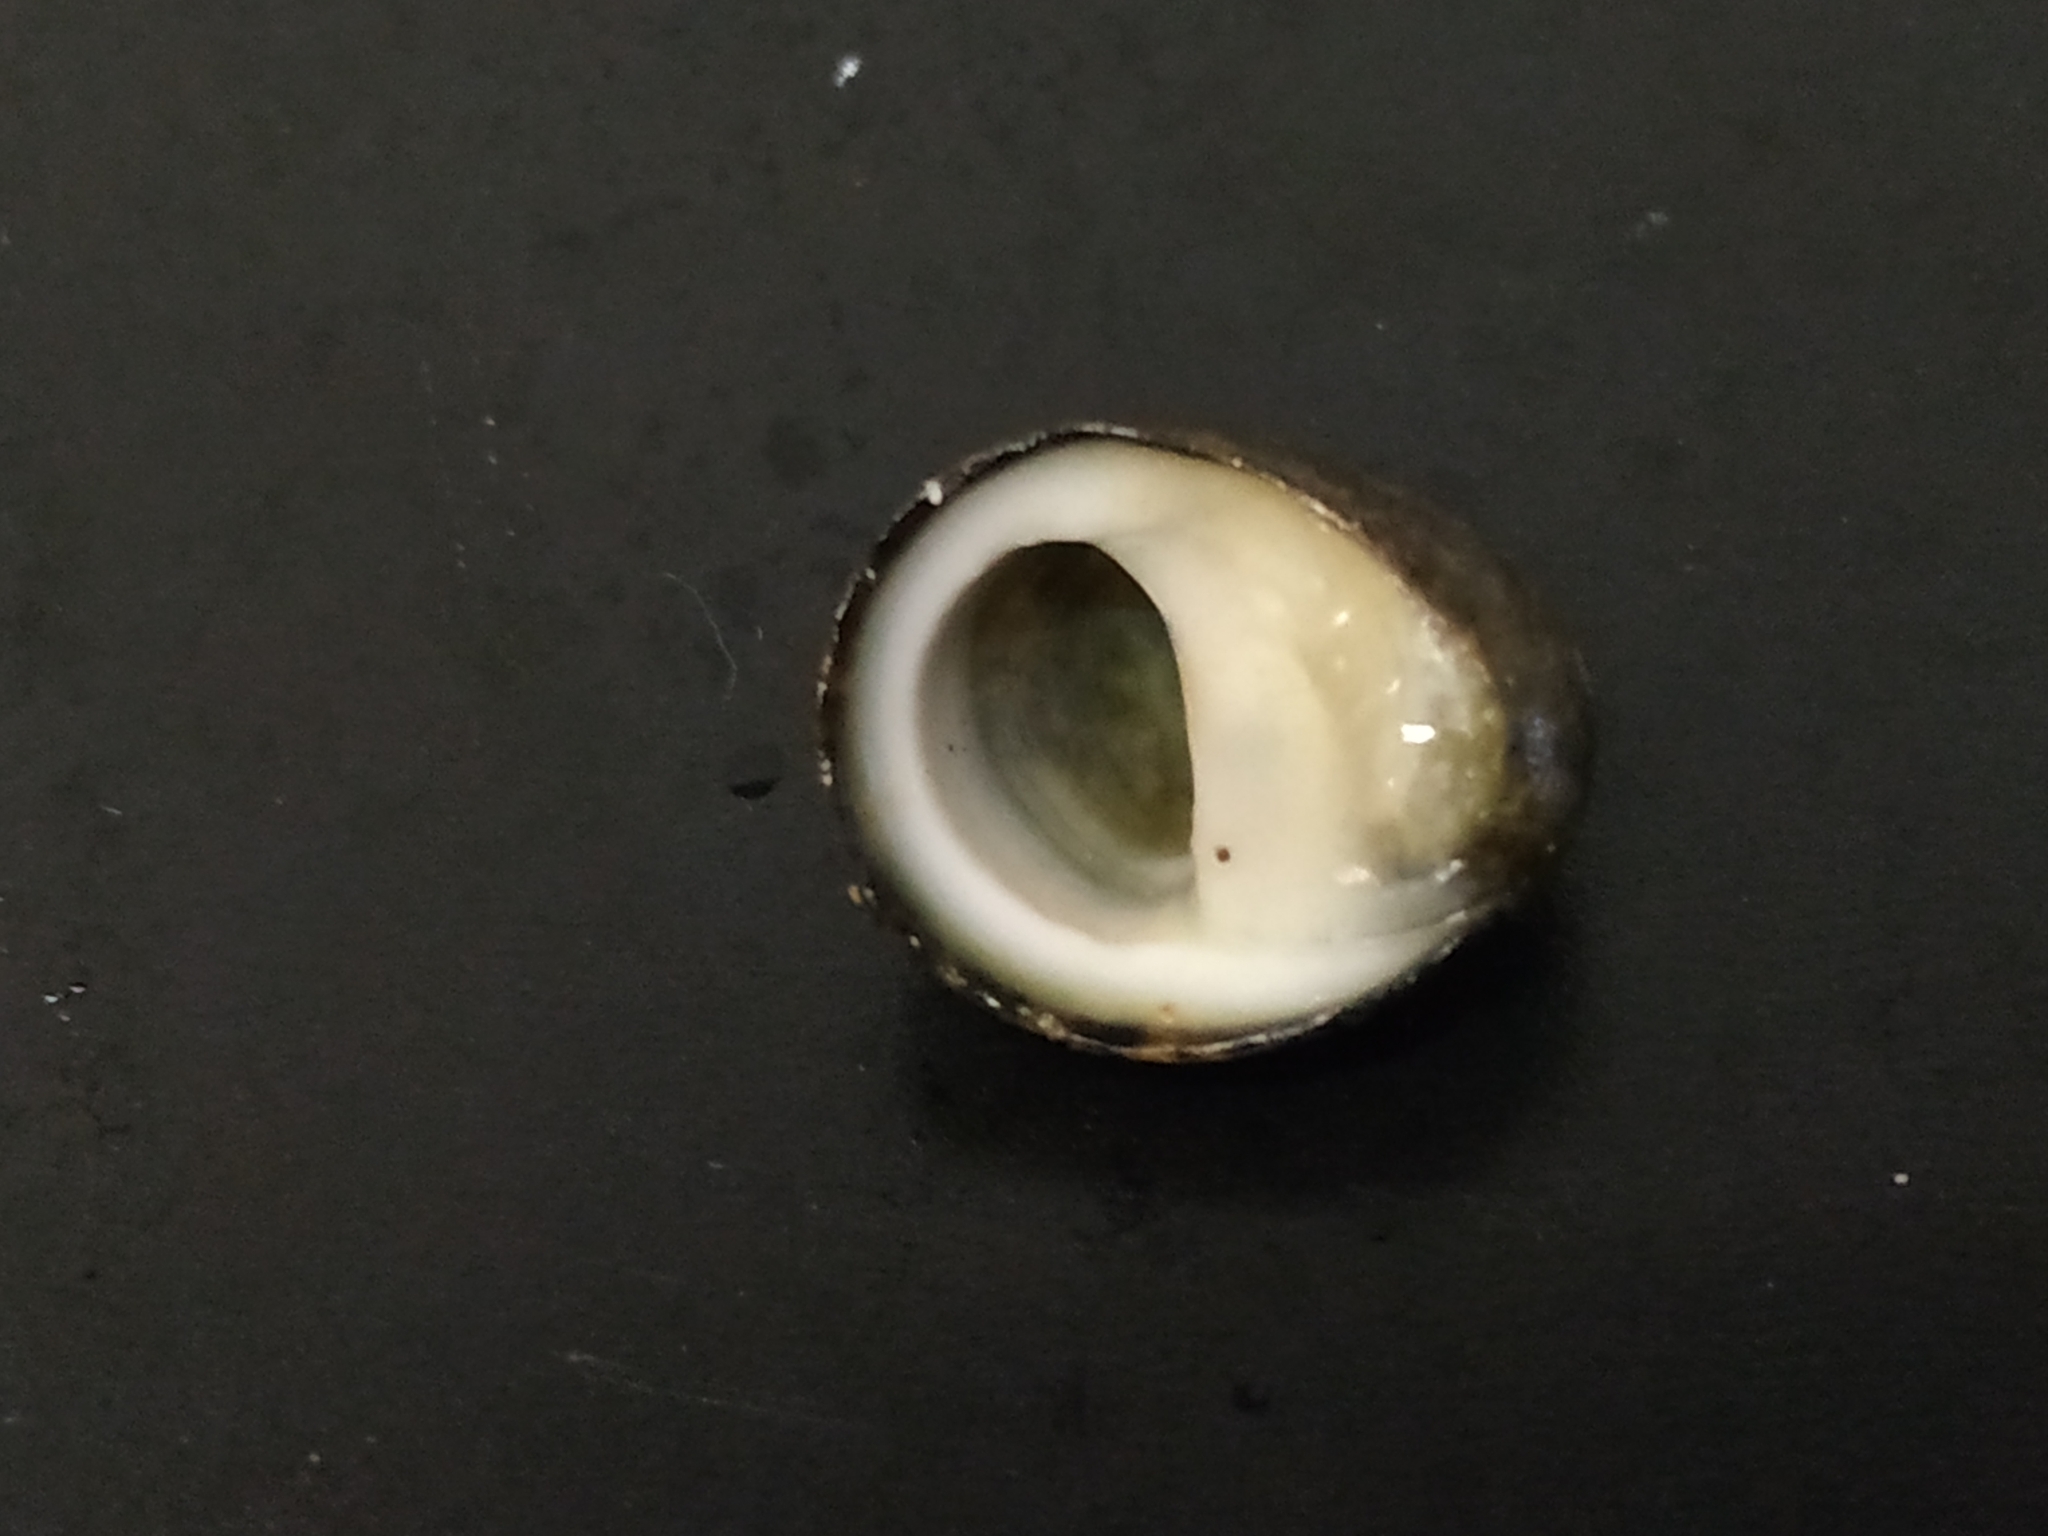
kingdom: Animalia
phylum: Mollusca
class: Gastropoda
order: Cycloneritida
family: Neritidae
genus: Nerita
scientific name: Nerita incerta
